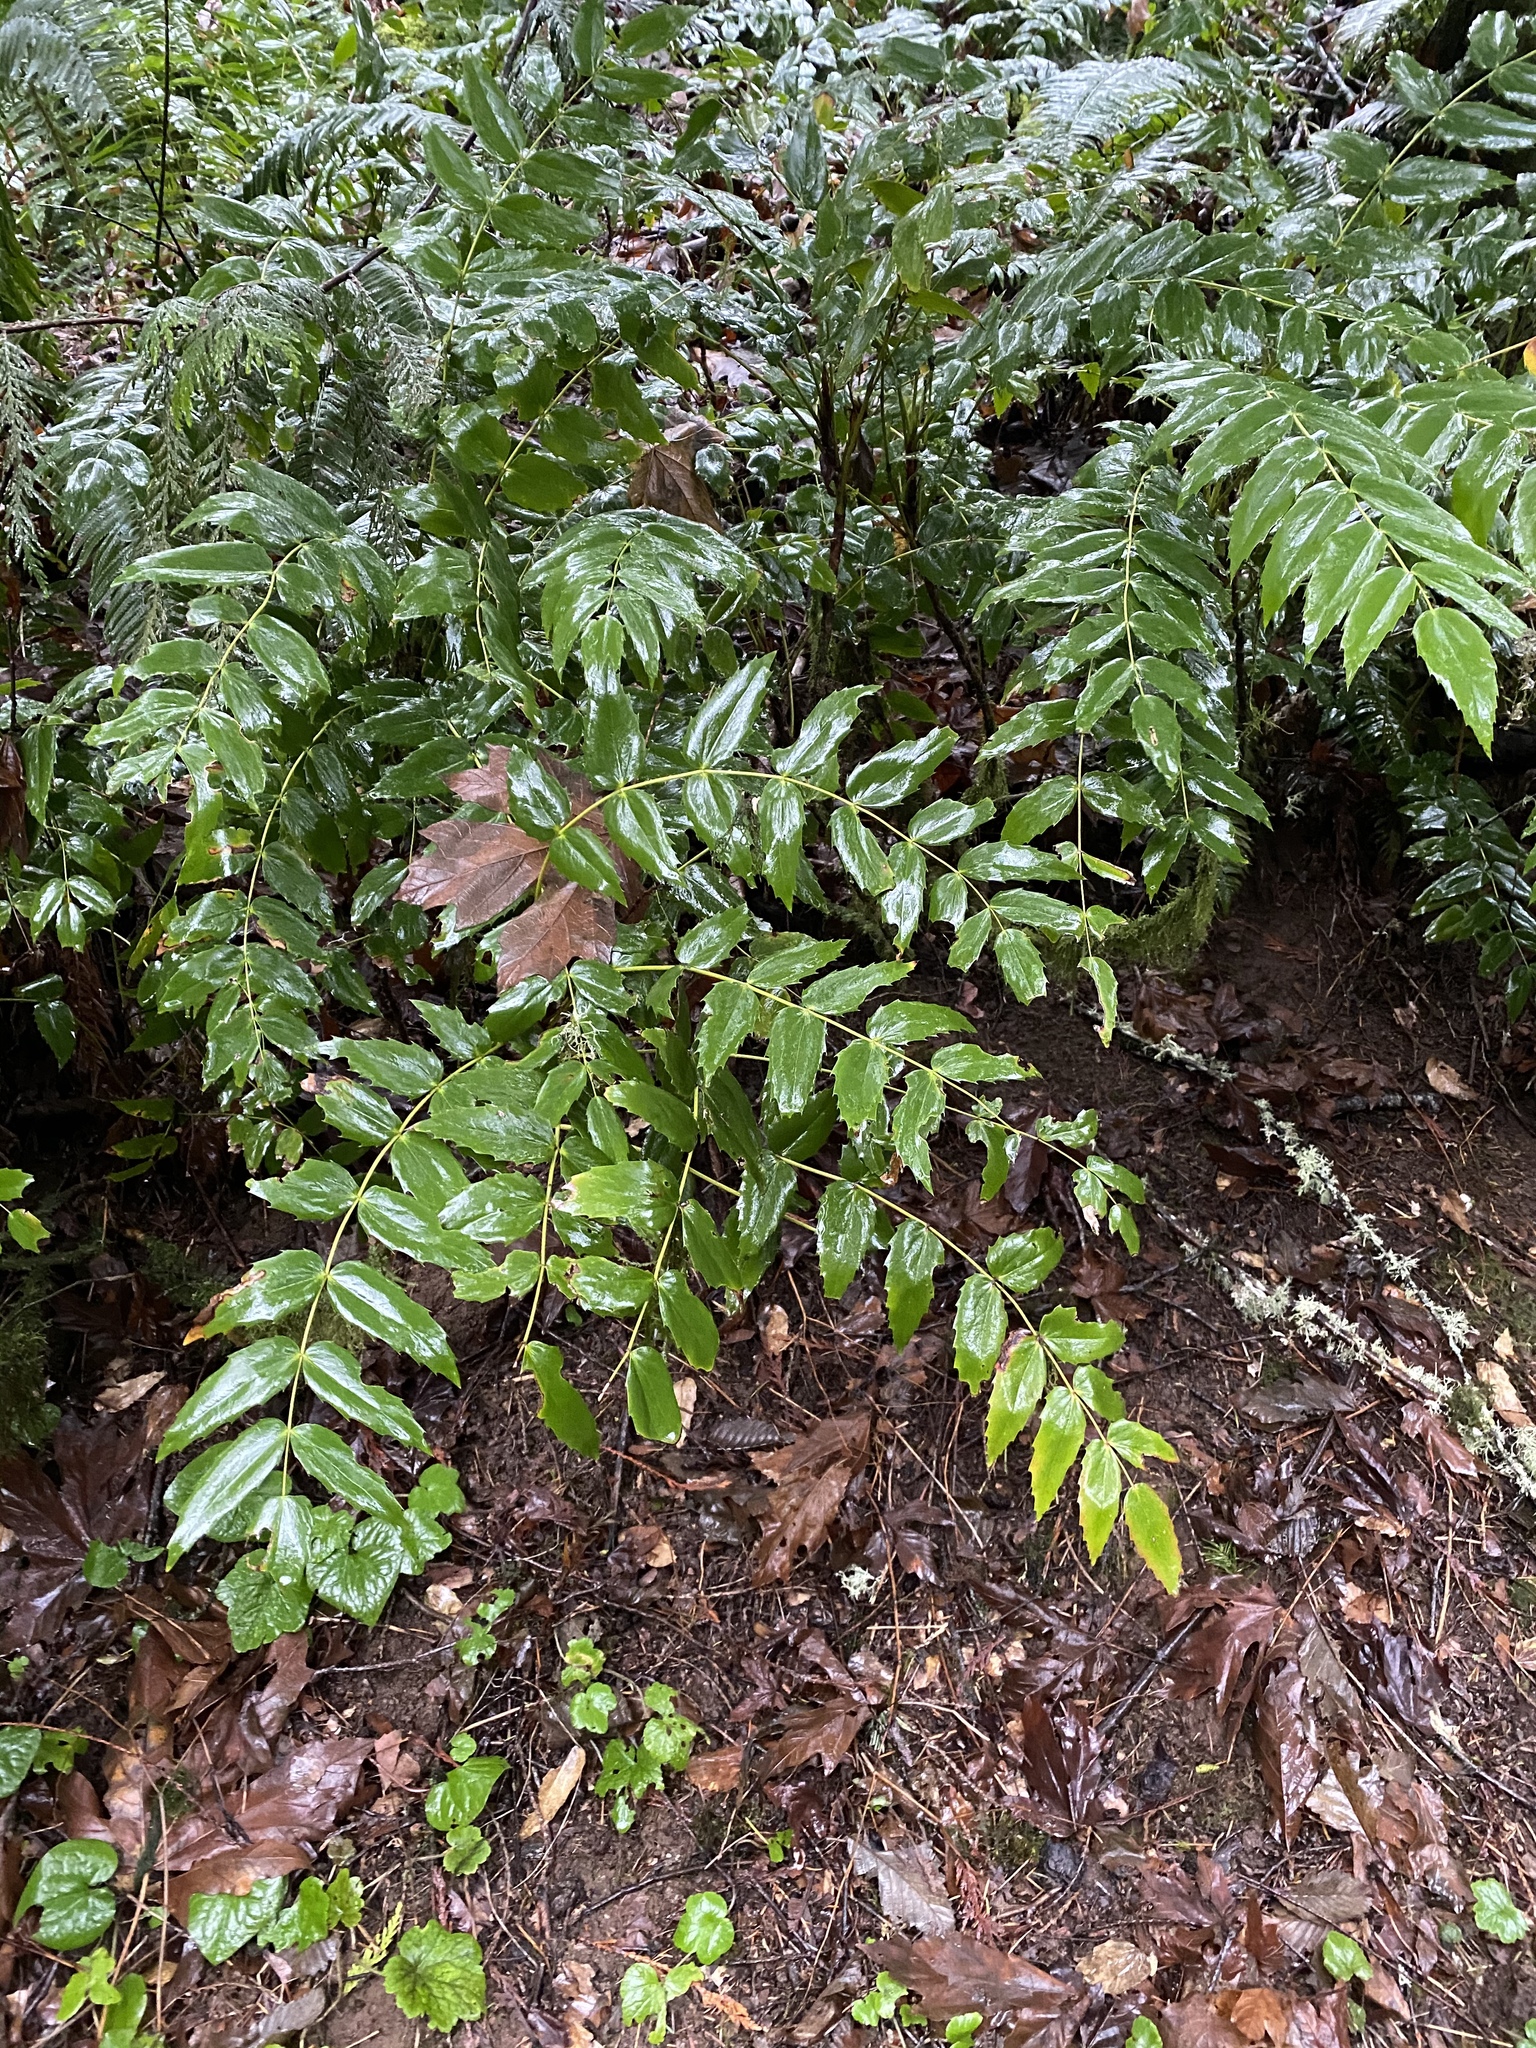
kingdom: Plantae
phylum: Tracheophyta
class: Magnoliopsida
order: Ranunculales
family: Berberidaceae
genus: Mahonia
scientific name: Mahonia nervosa
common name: Cascade oregon-grape
